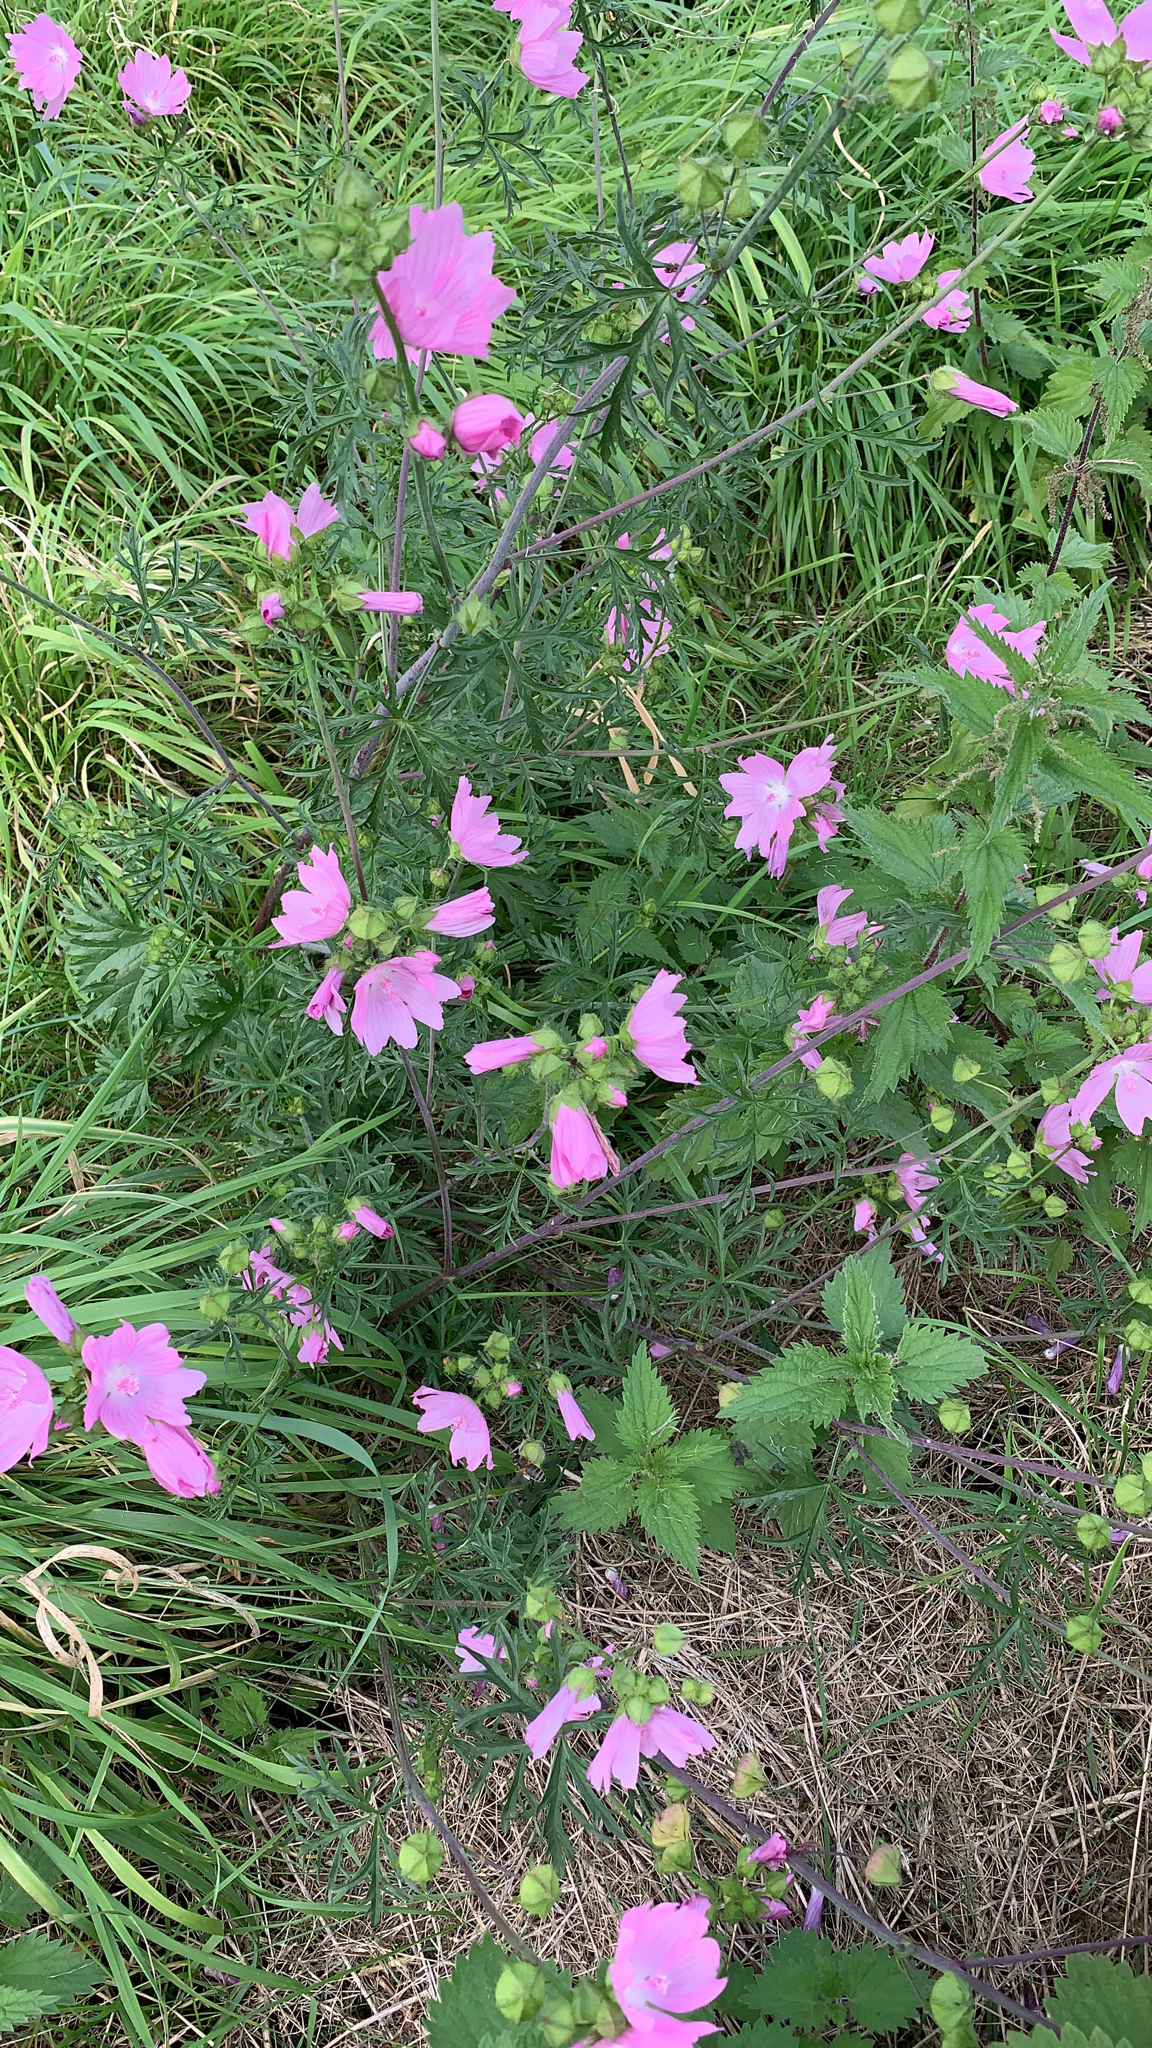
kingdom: Plantae
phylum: Tracheophyta
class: Magnoliopsida
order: Malvales
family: Malvaceae
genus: Malva
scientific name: Malva moschata
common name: Musk mallow
